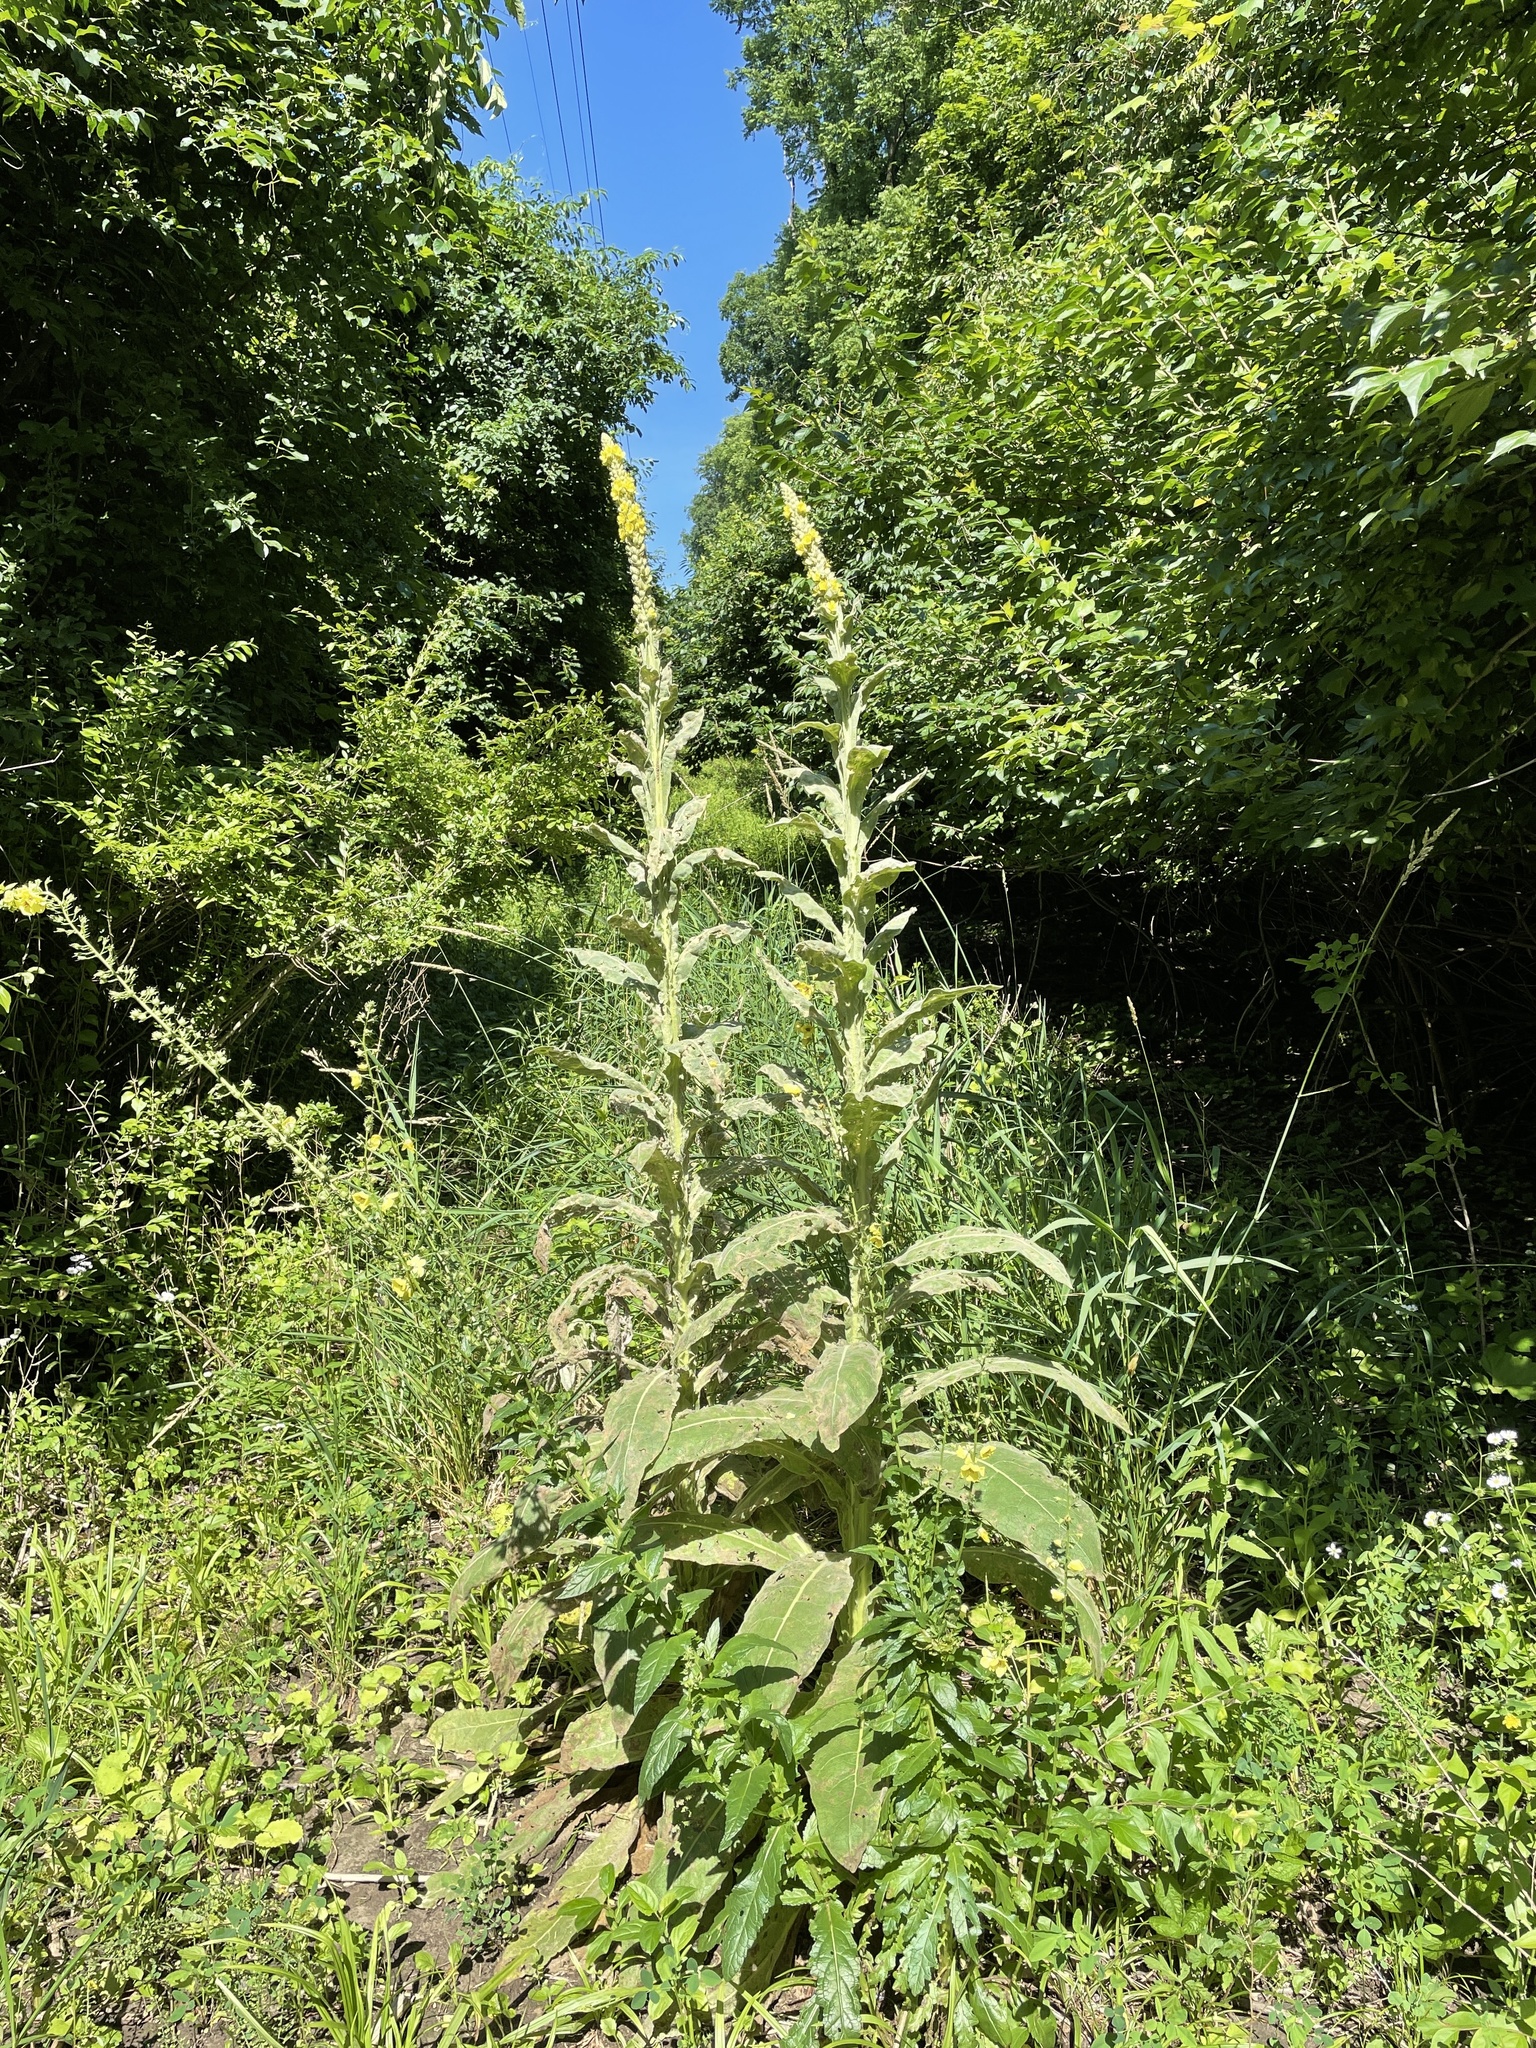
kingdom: Plantae
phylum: Tracheophyta
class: Magnoliopsida
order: Lamiales
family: Scrophulariaceae
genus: Verbascum
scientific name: Verbascum thapsus
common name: Common mullein
